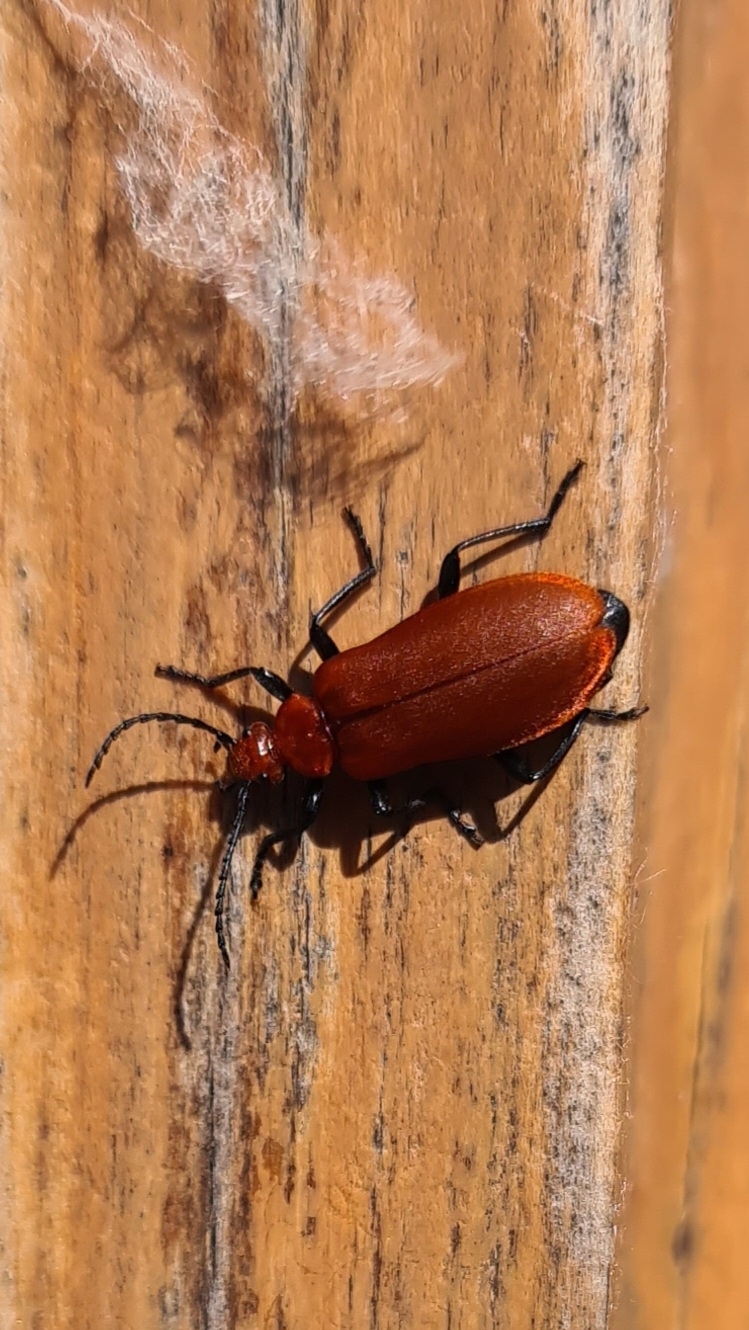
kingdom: Animalia
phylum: Arthropoda
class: Insecta
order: Coleoptera
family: Pyrochroidae
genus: Pyrochroa
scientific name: Pyrochroa serraticornis
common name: Red-headed cardinal beetle
